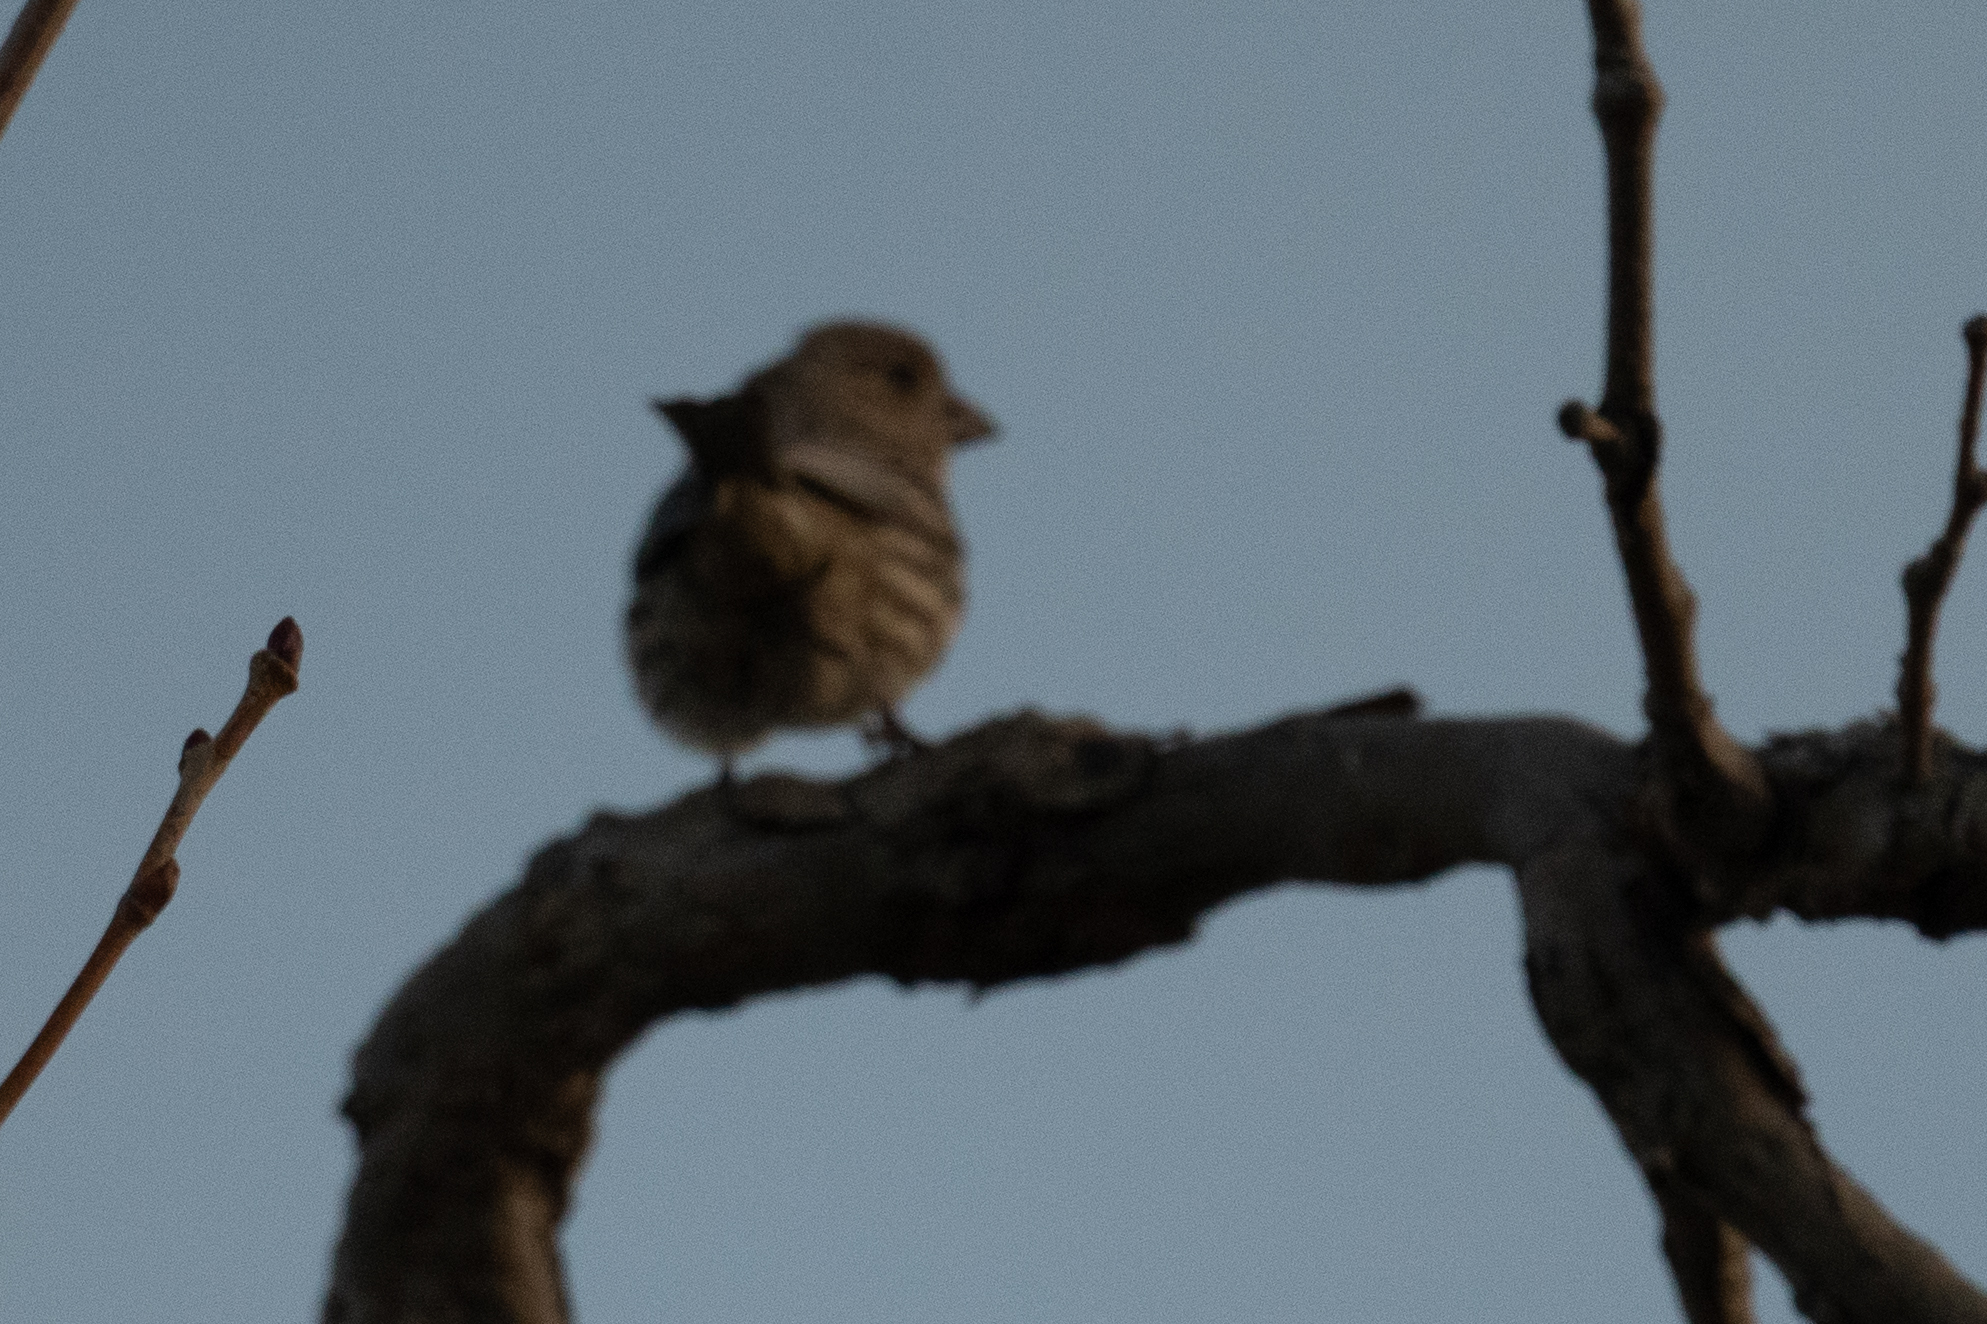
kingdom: Animalia
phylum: Chordata
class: Aves
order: Passeriformes
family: Fringillidae
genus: Haemorhous
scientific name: Haemorhous mexicanus
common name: House finch
